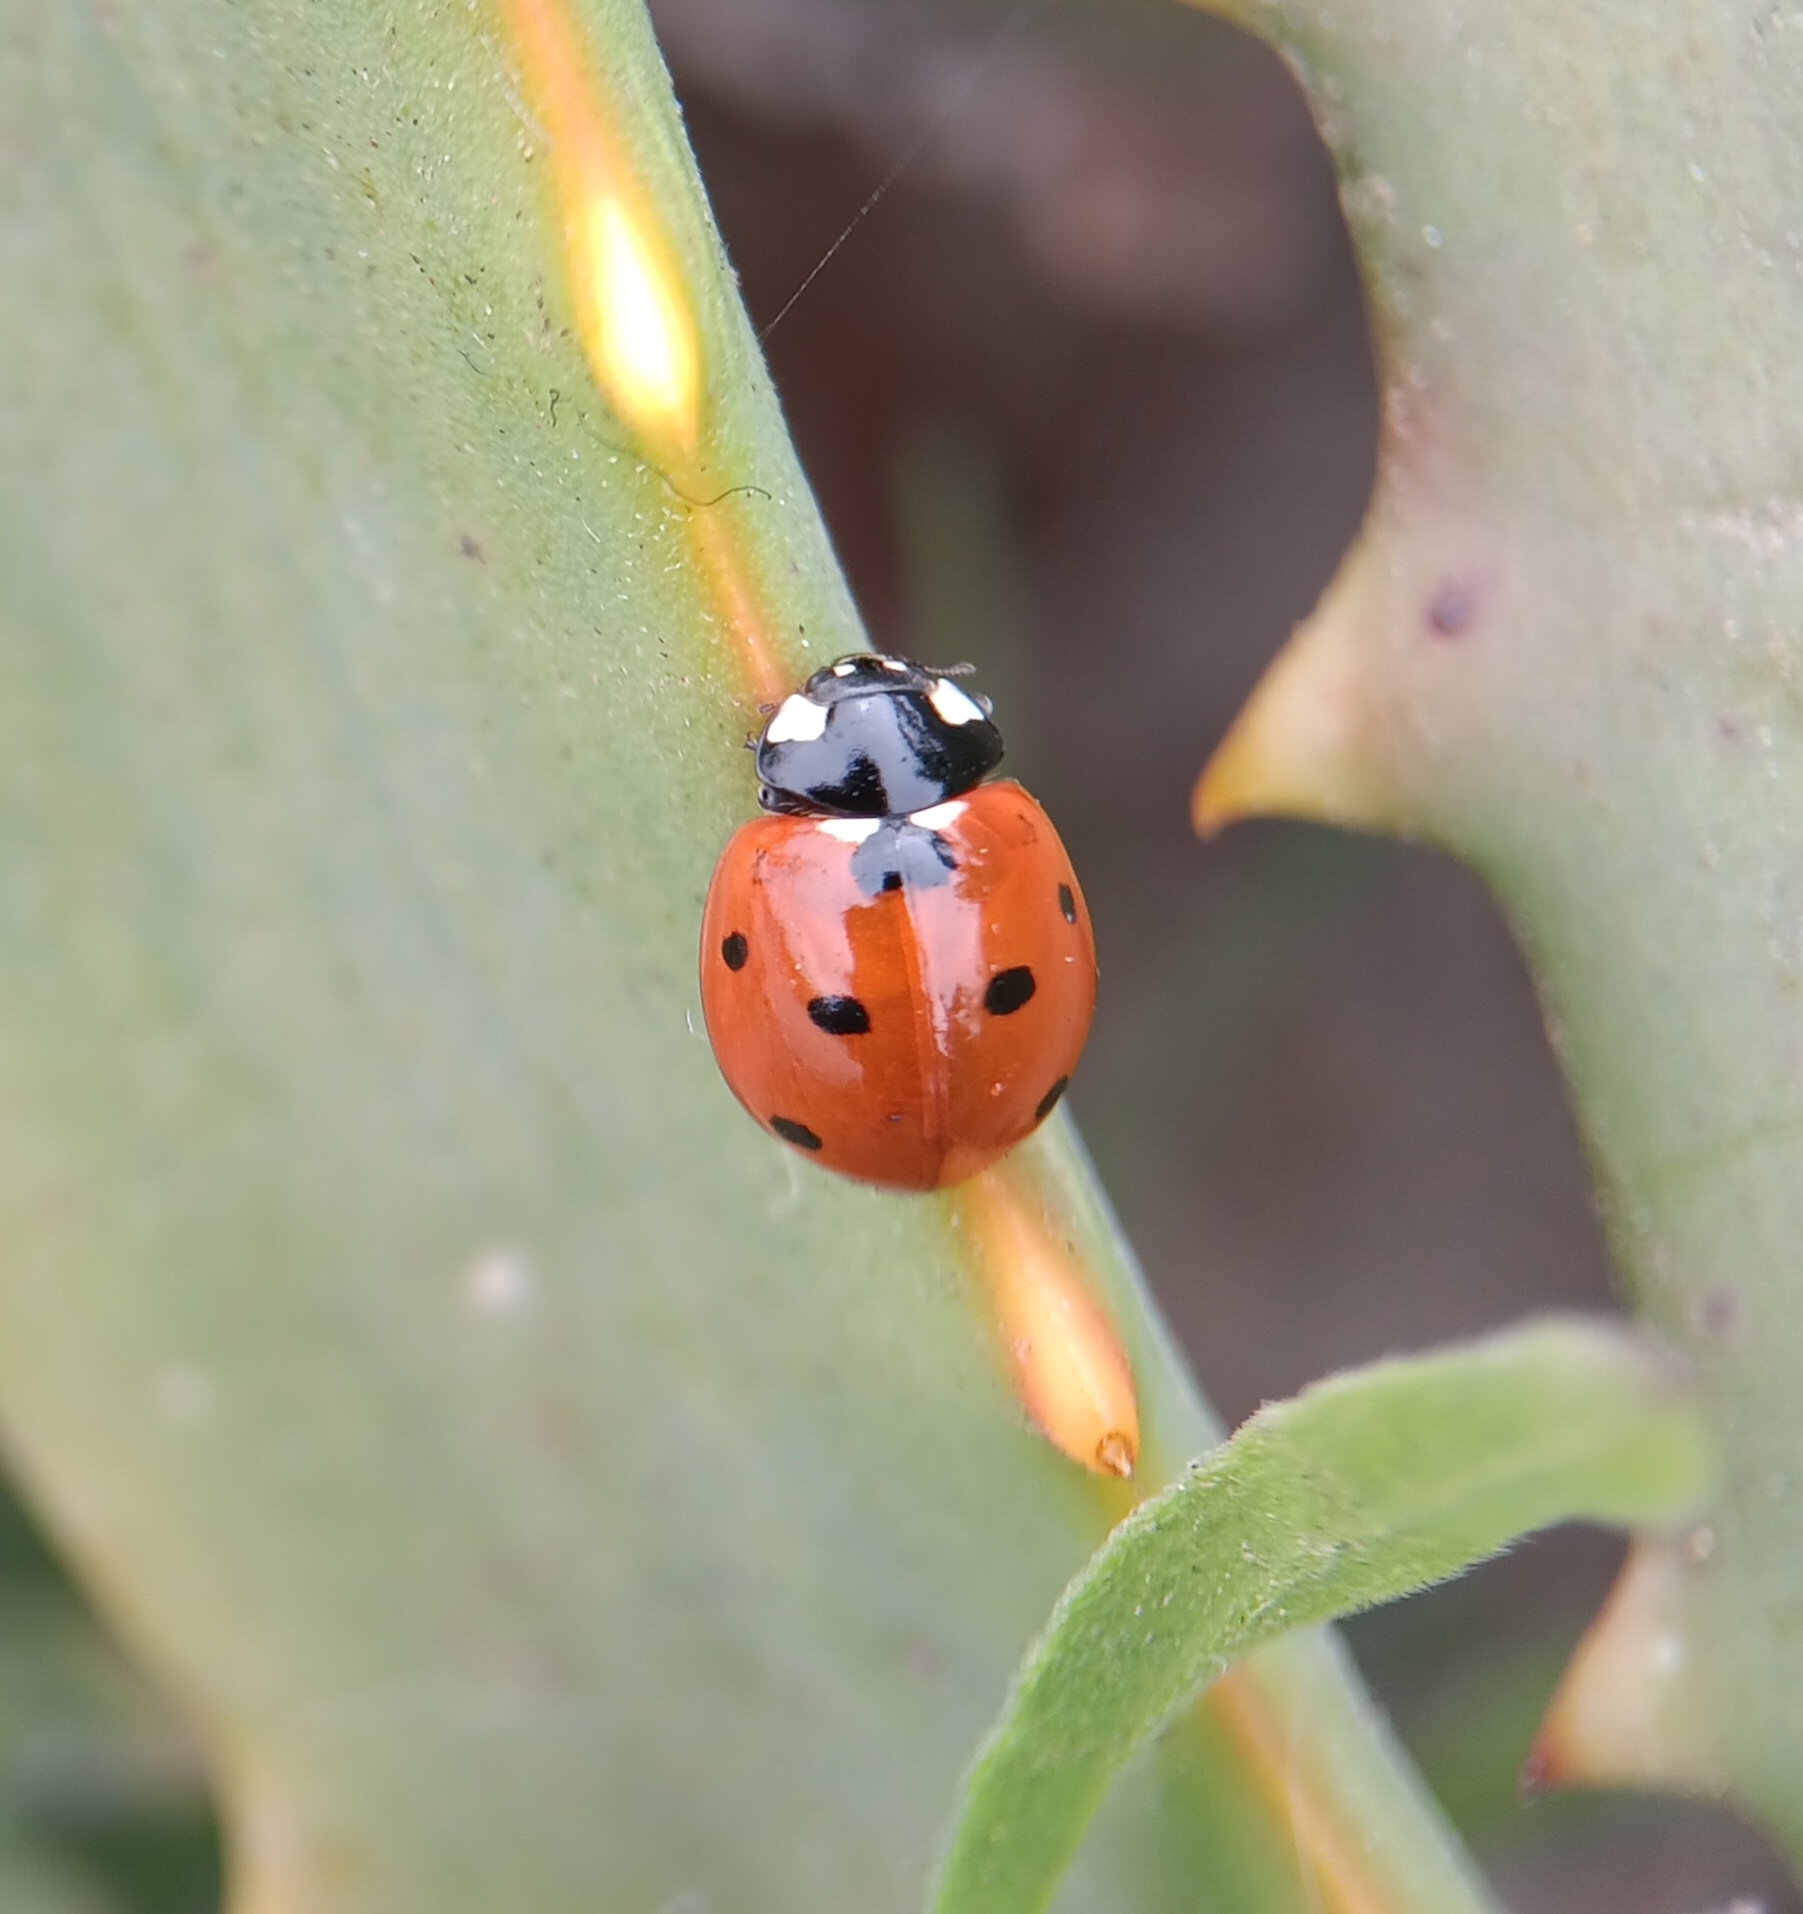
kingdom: Animalia
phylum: Arthropoda
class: Insecta
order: Coleoptera
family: Coccinellidae
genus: Coccinella
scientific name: Coccinella septempunctata
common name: Sevenspotted lady beetle
